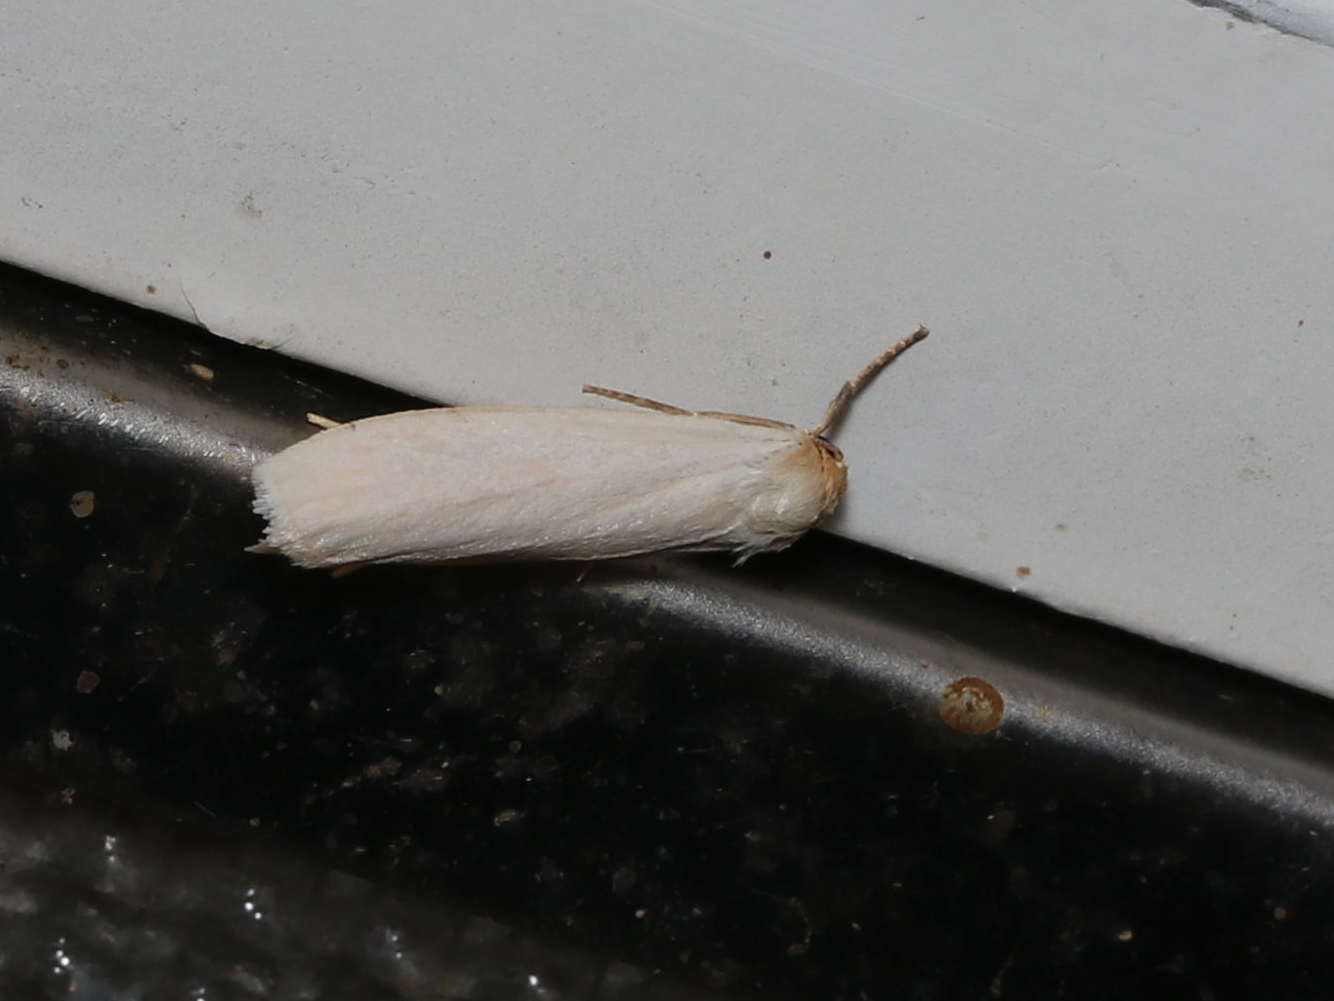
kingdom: Animalia
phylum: Arthropoda
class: Insecta
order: Lepidoptera
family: Erebidae
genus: Crambidia
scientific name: Crambidia xanthocorpa
